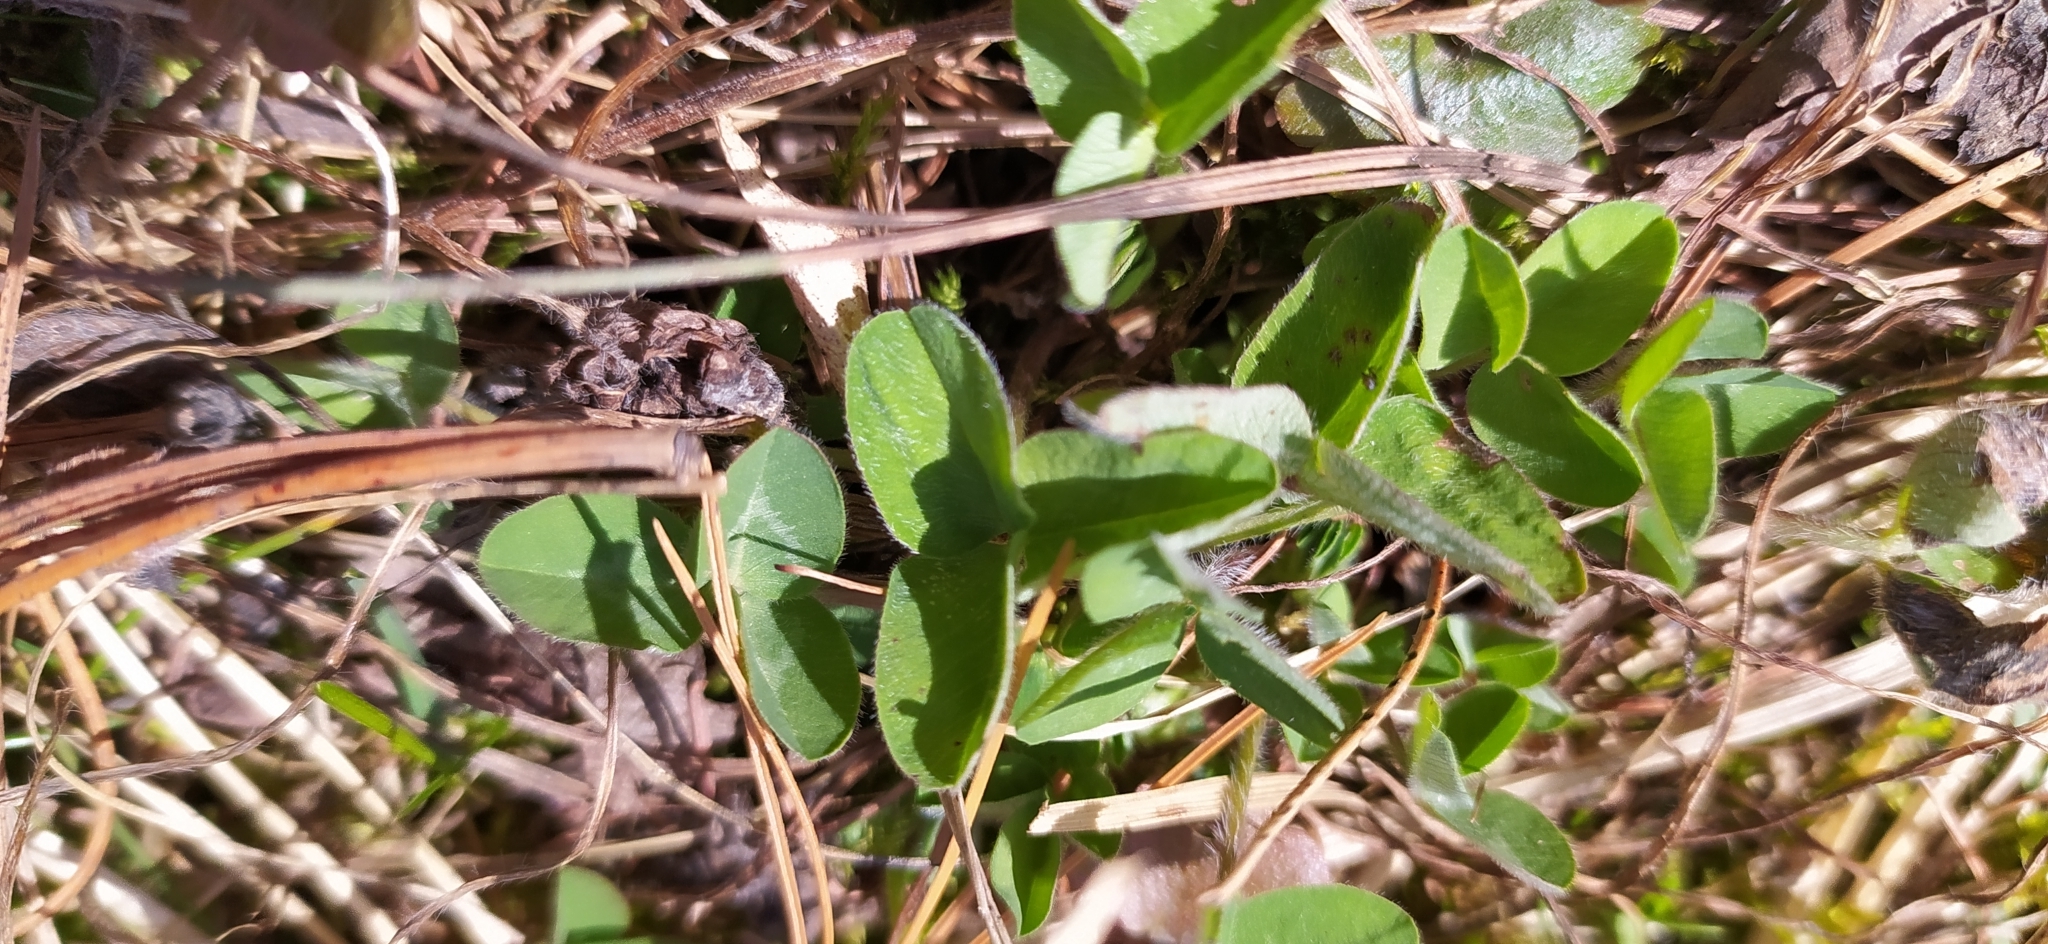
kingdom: Plantae
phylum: Tracheophyta
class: Magnoliopsida
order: Fabales
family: Fabaceae
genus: Trifolium
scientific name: Trifolium pratense
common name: Red clover
